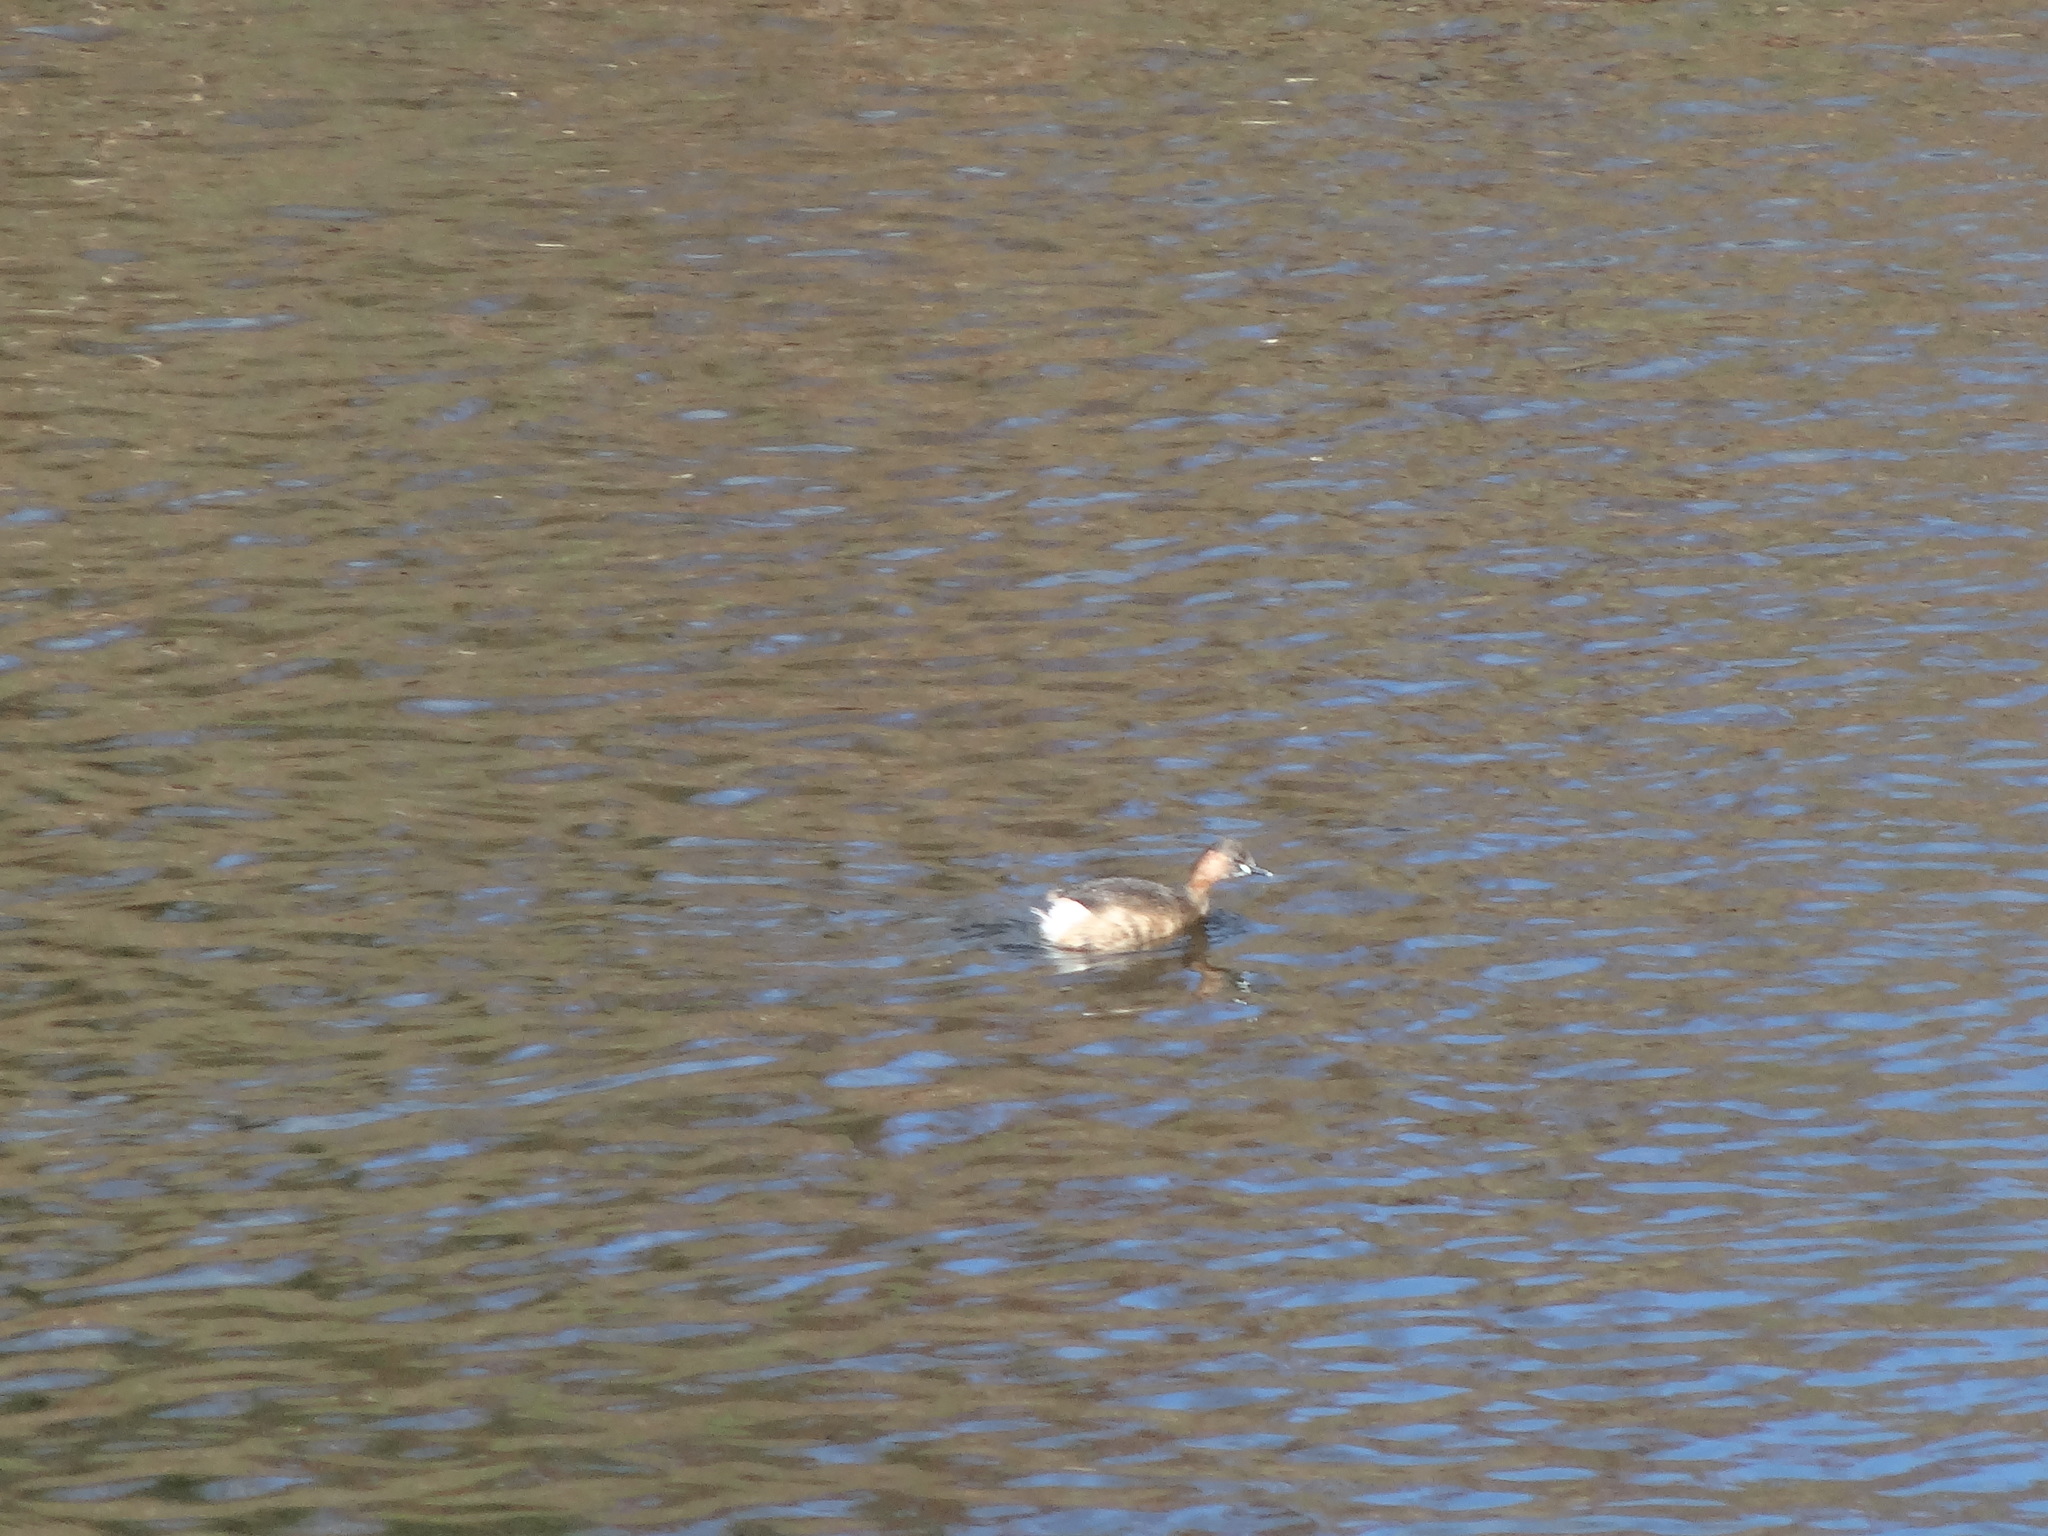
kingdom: Animalia
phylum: Chordata
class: Aves
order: Podicipediformes
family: Podicipedidae
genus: Tachybaptus
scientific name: Tachybaptus ruficollis
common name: Little grebe
